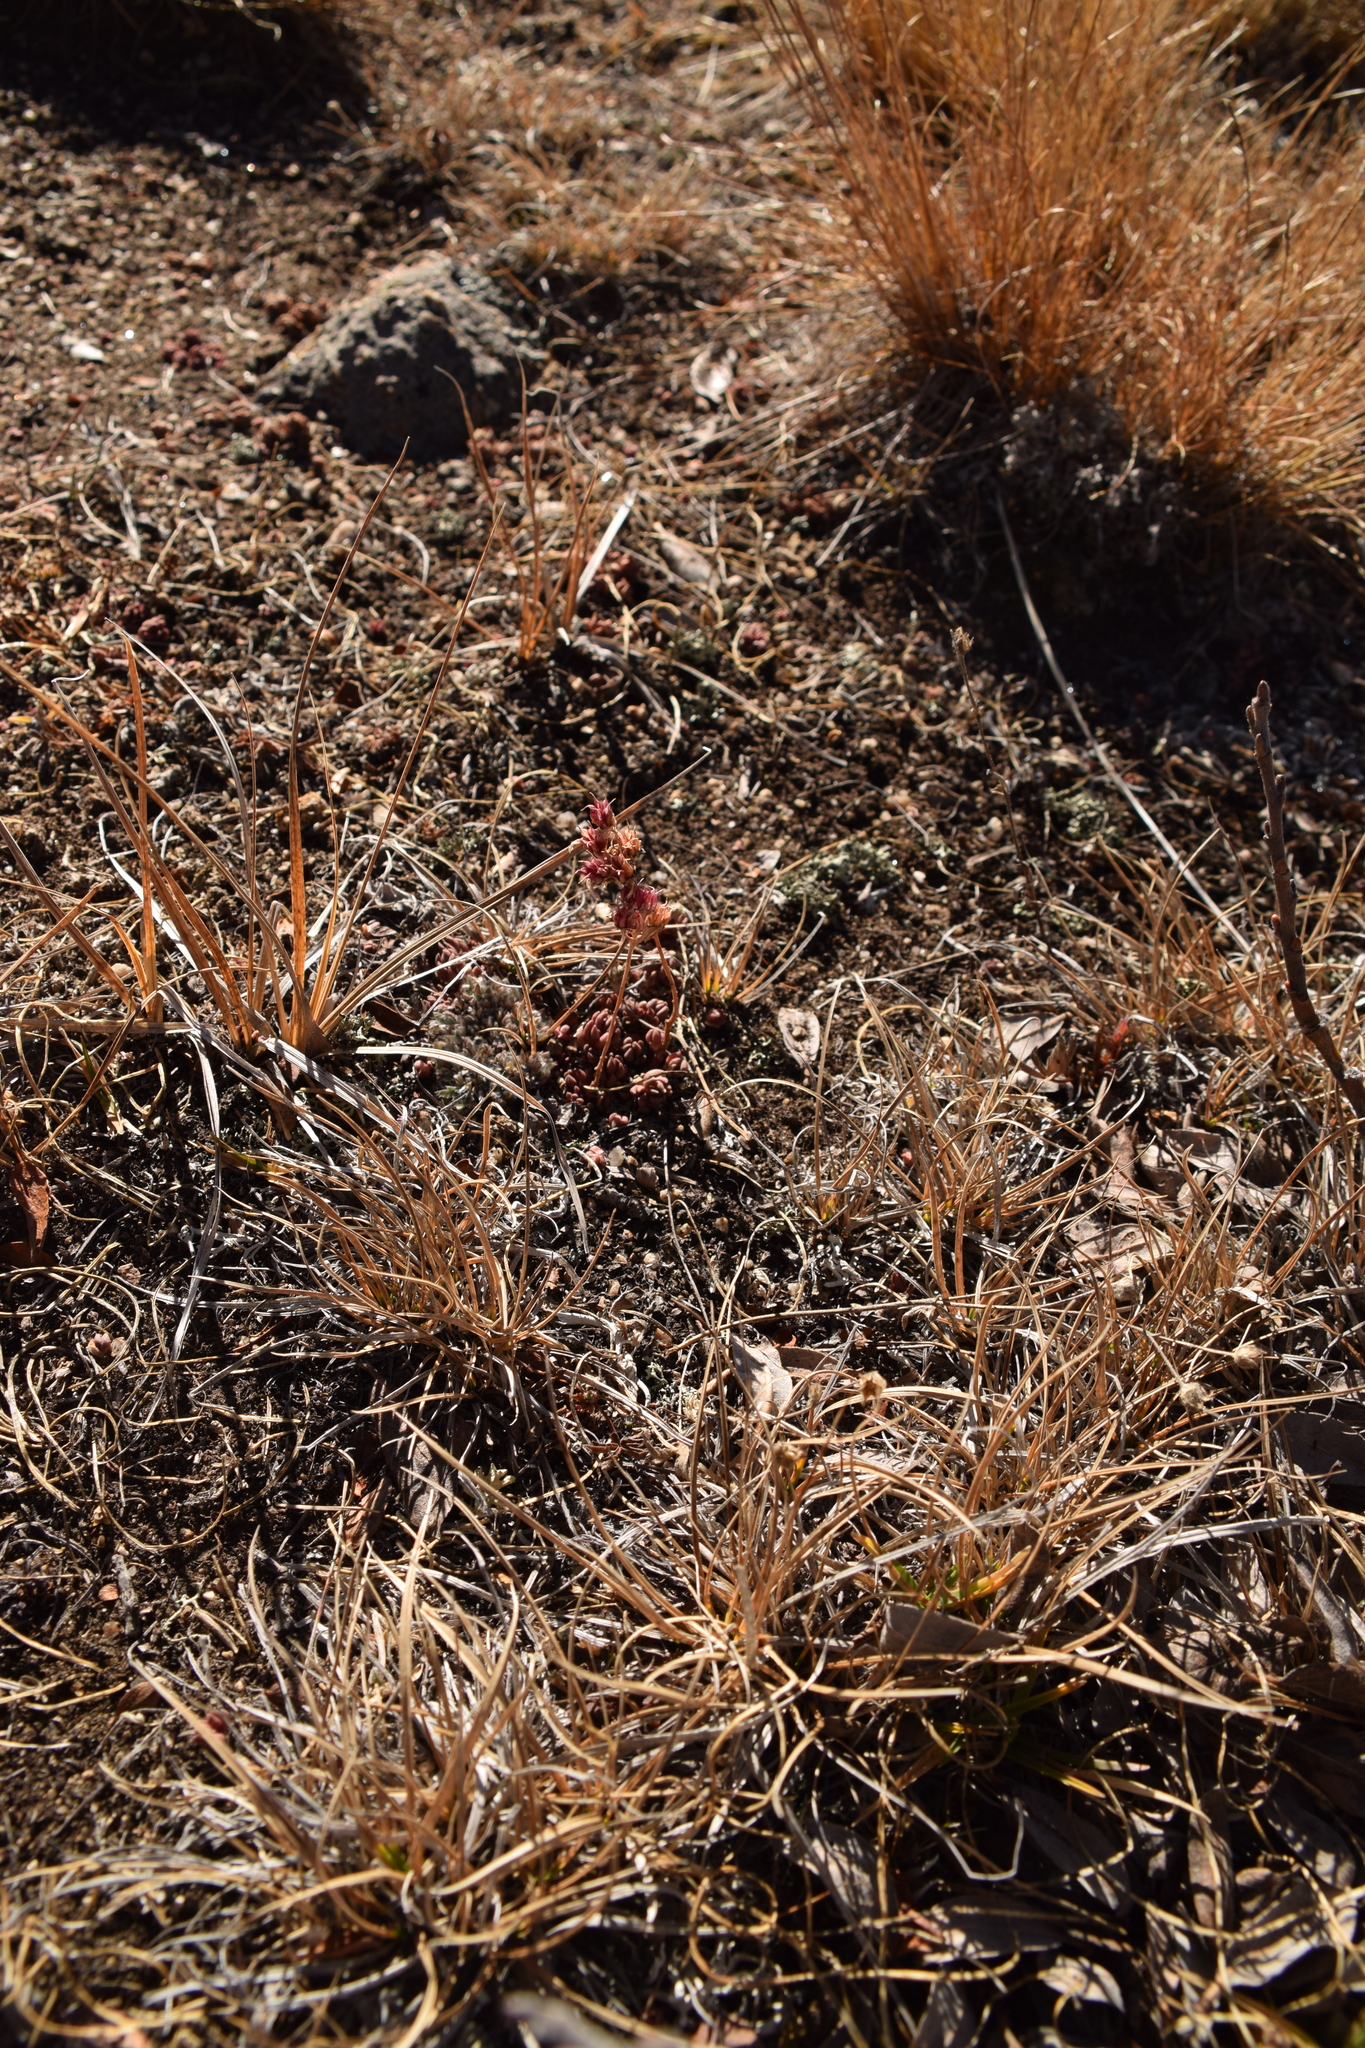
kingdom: Plantae
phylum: Tracheophyta
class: Magnoliopsida
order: Saxifragales
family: Crassulaceae
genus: Sedum
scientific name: Sedum lanceolatum
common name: Common stonecrop
